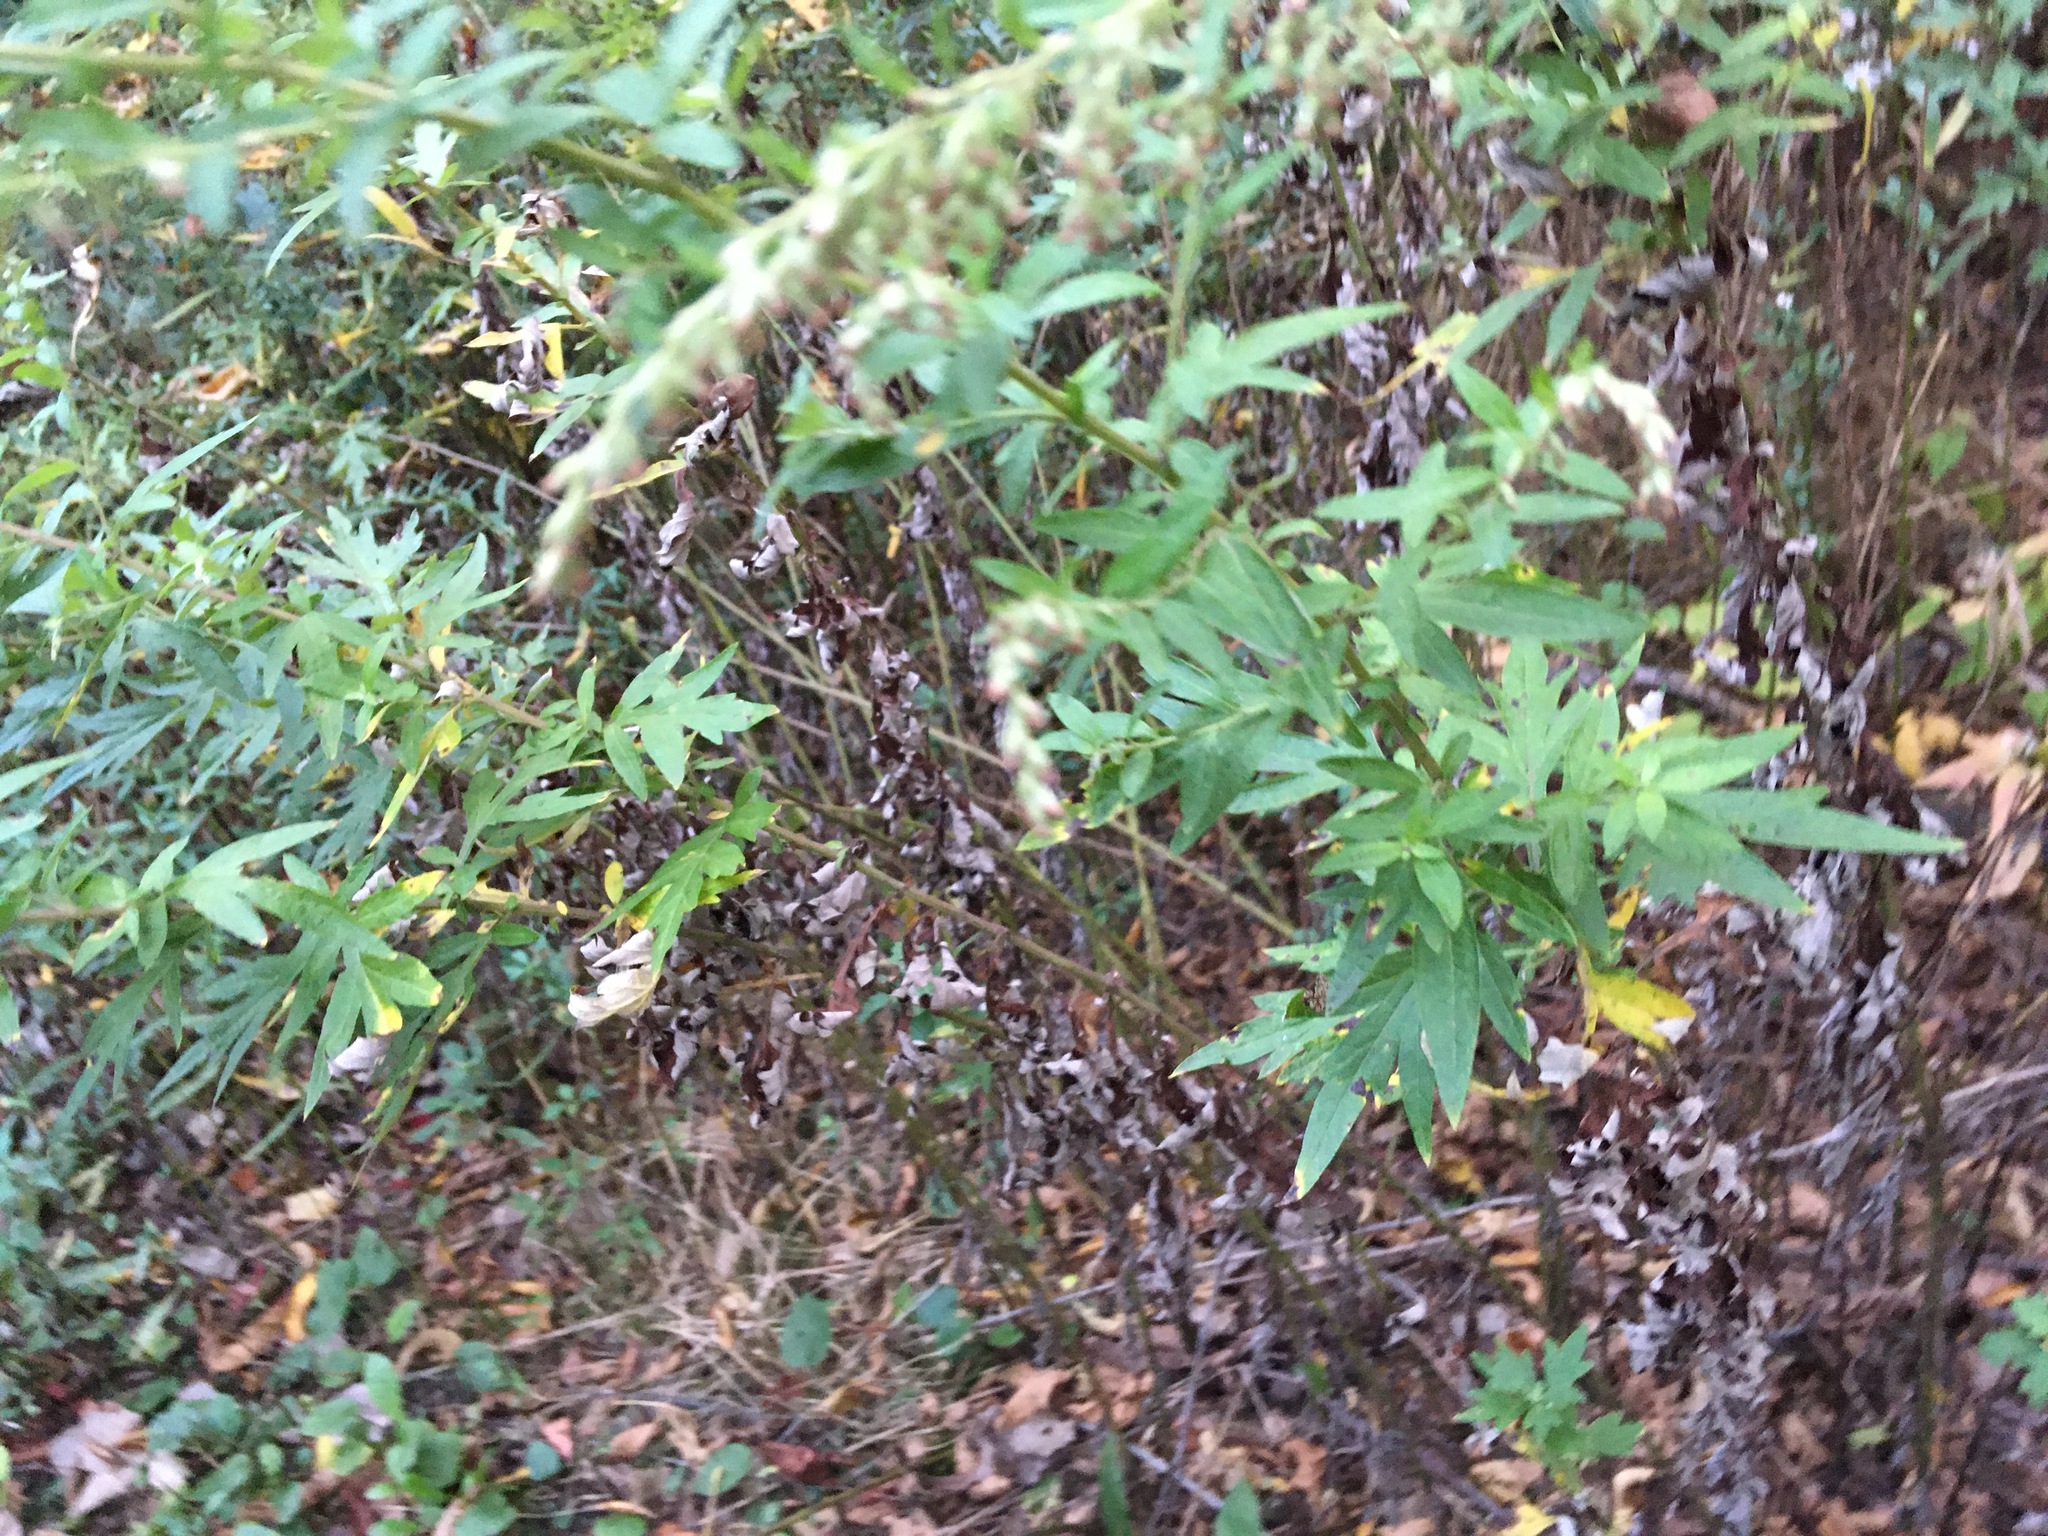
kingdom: Plantae
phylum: Tracheophyta
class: Magnoliopsida
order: Asterales
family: Asteraceae
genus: Artemisia
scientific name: Artemisia vulgaris
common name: Mugwort
